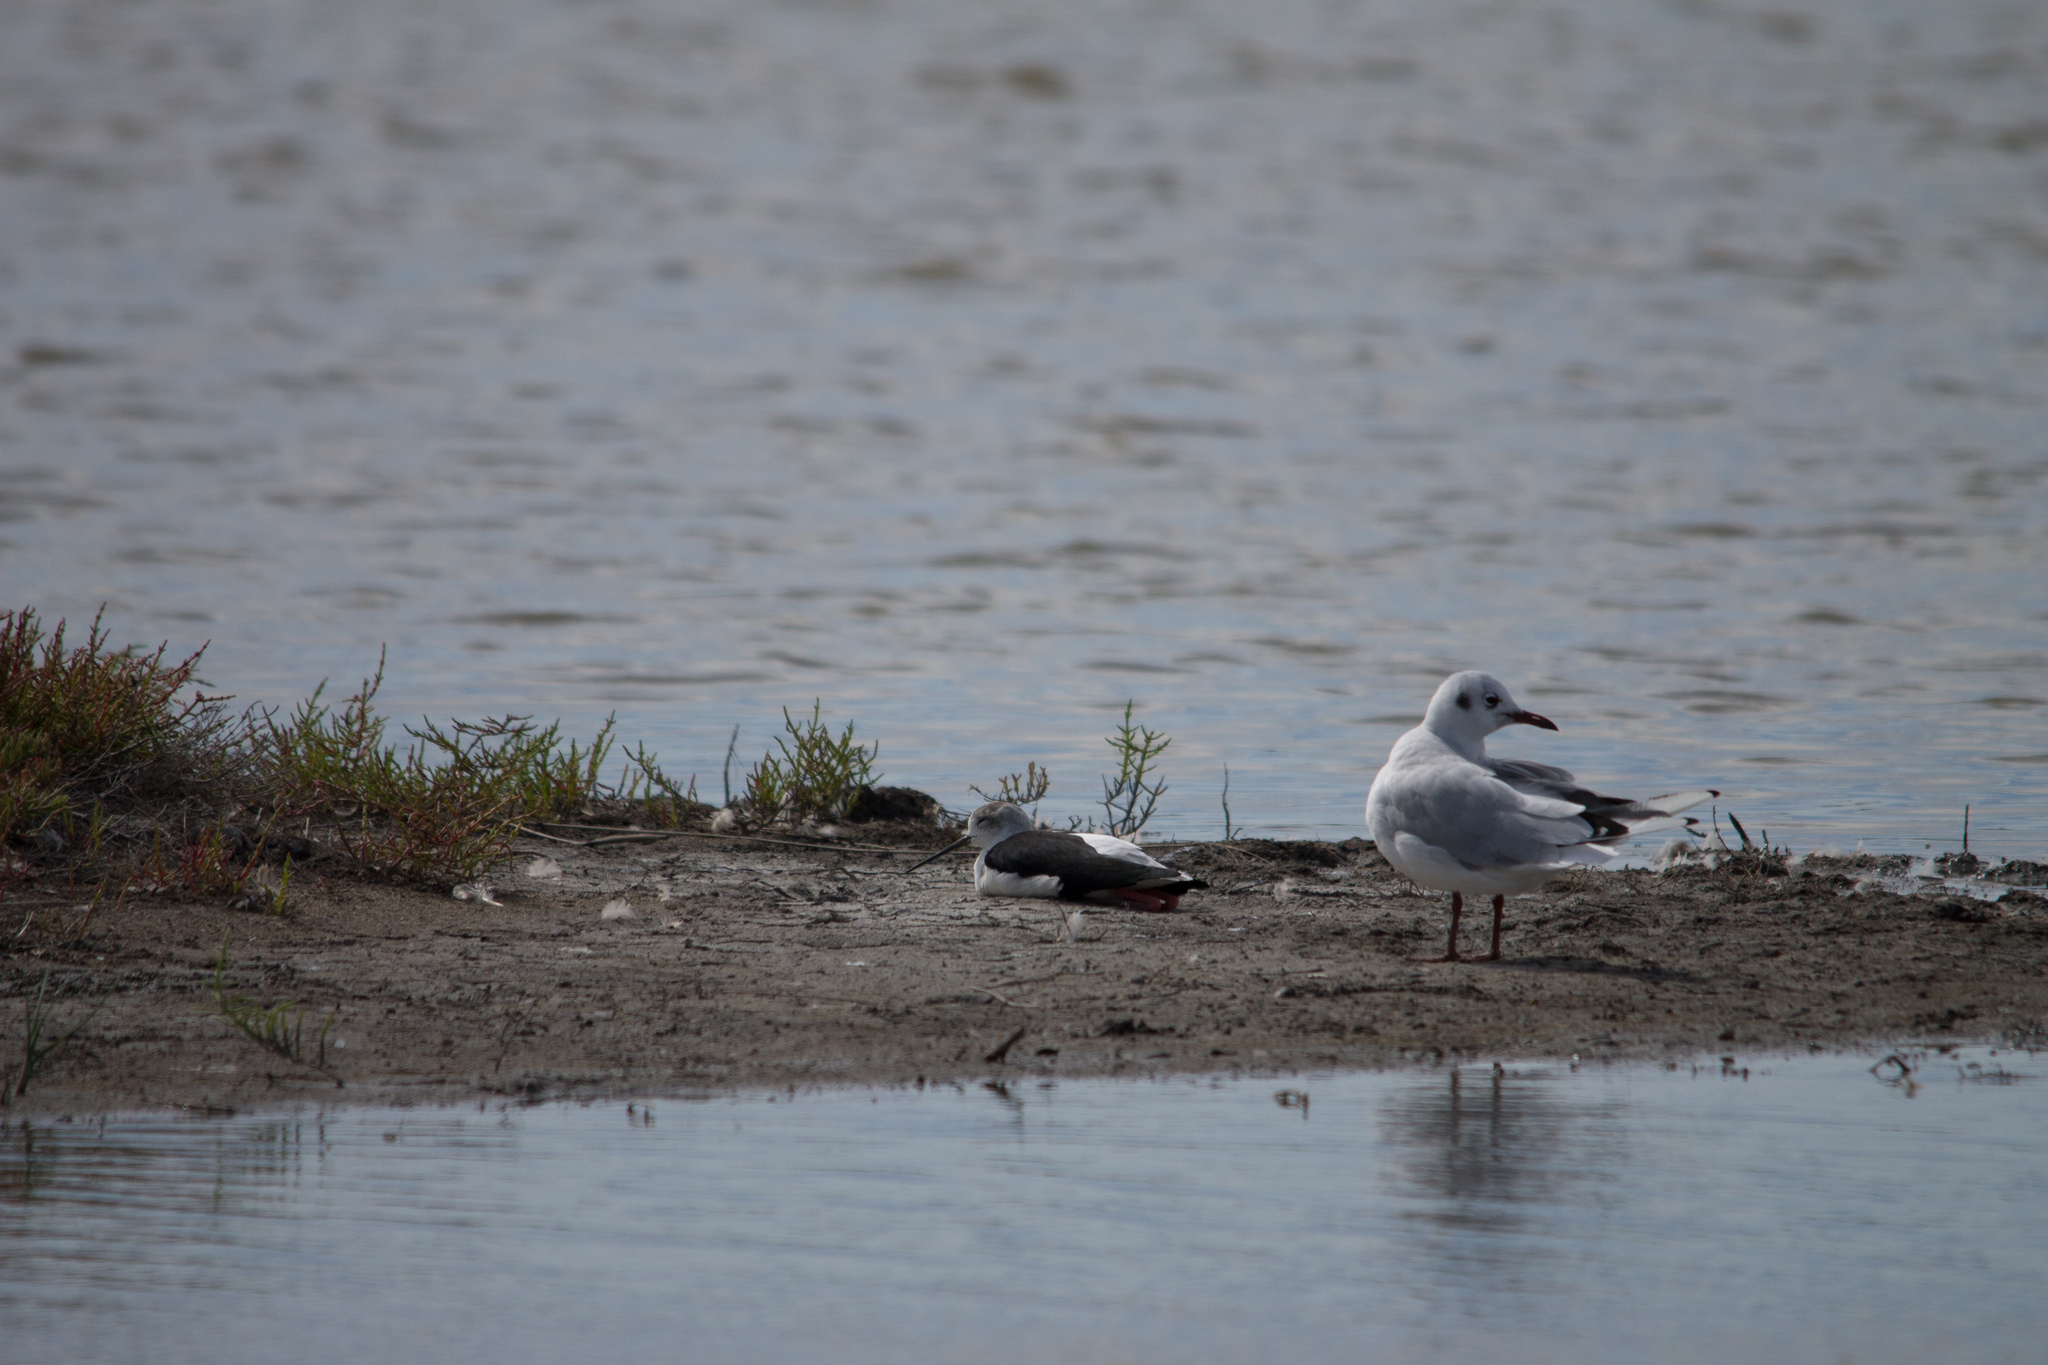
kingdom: Animalia
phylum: Chordata
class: Aves
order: Charadriiformes
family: Recurvirostridae
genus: Himantopus
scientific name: Himantopus himantopus
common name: Black-winged stilt
